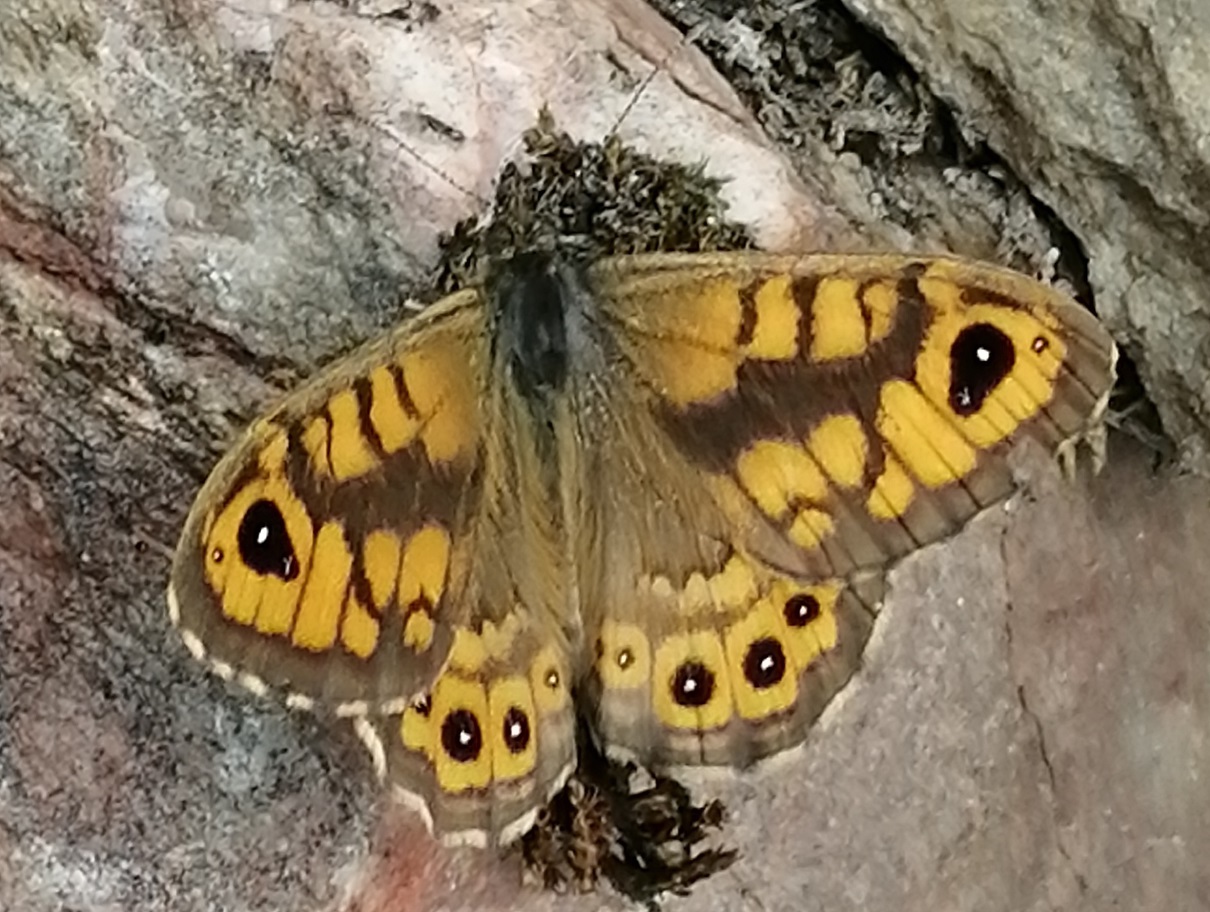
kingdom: Animalia
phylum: Arthropoda
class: Insecta
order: Lepidoptera
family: Nymphalidae
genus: Pararge
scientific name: Pararge Lasiommata megera
